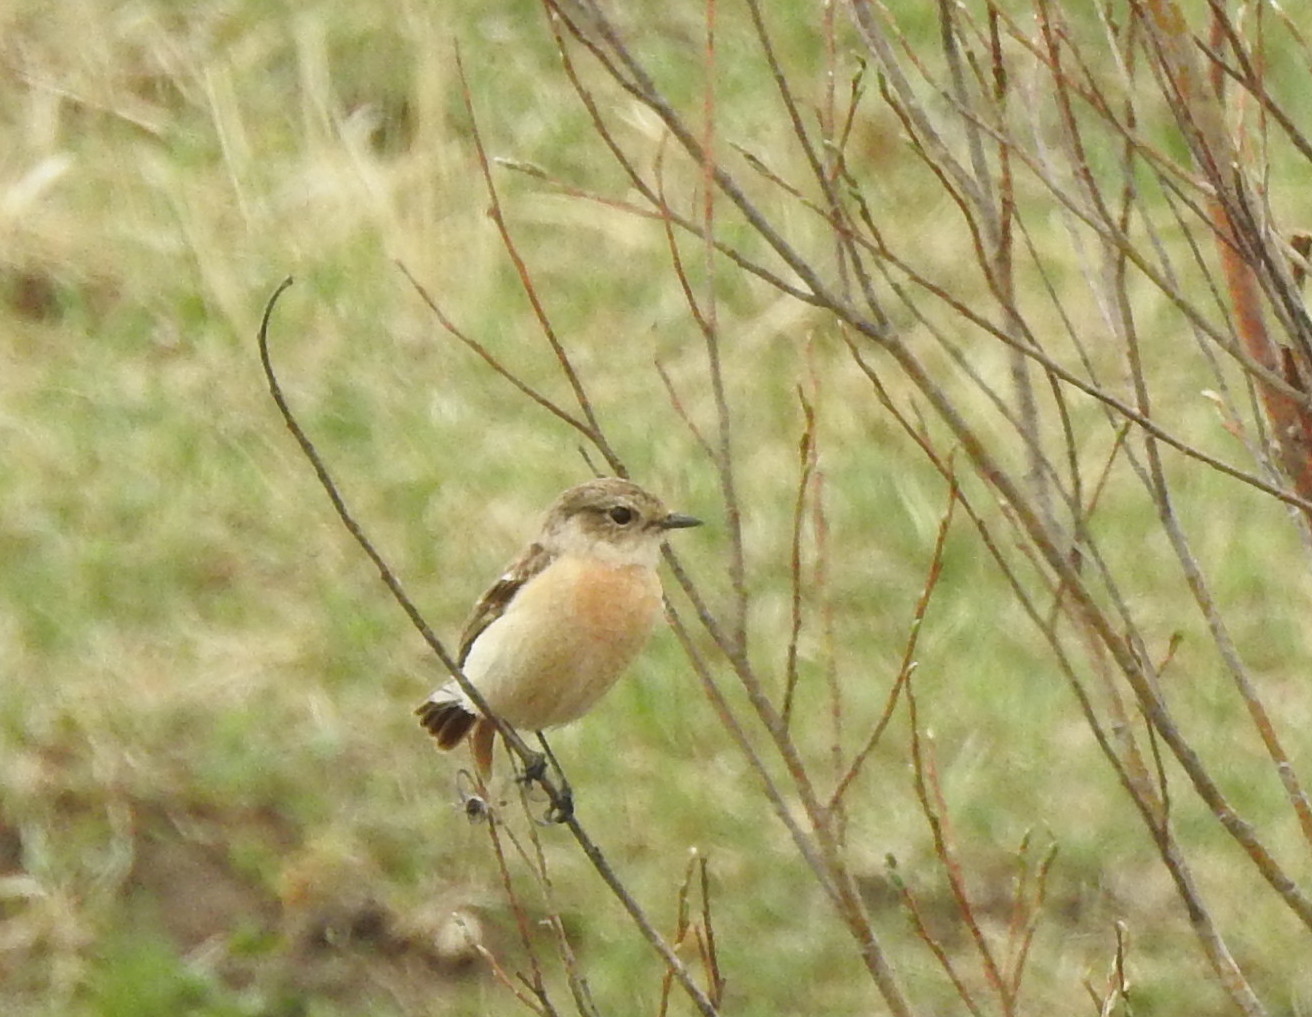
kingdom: Animalia
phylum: Chordata
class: Aves
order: Passeriformes
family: Muscicapidae
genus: Oenanthe
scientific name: Oenanthe isabellina
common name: Isabelline wheatear
